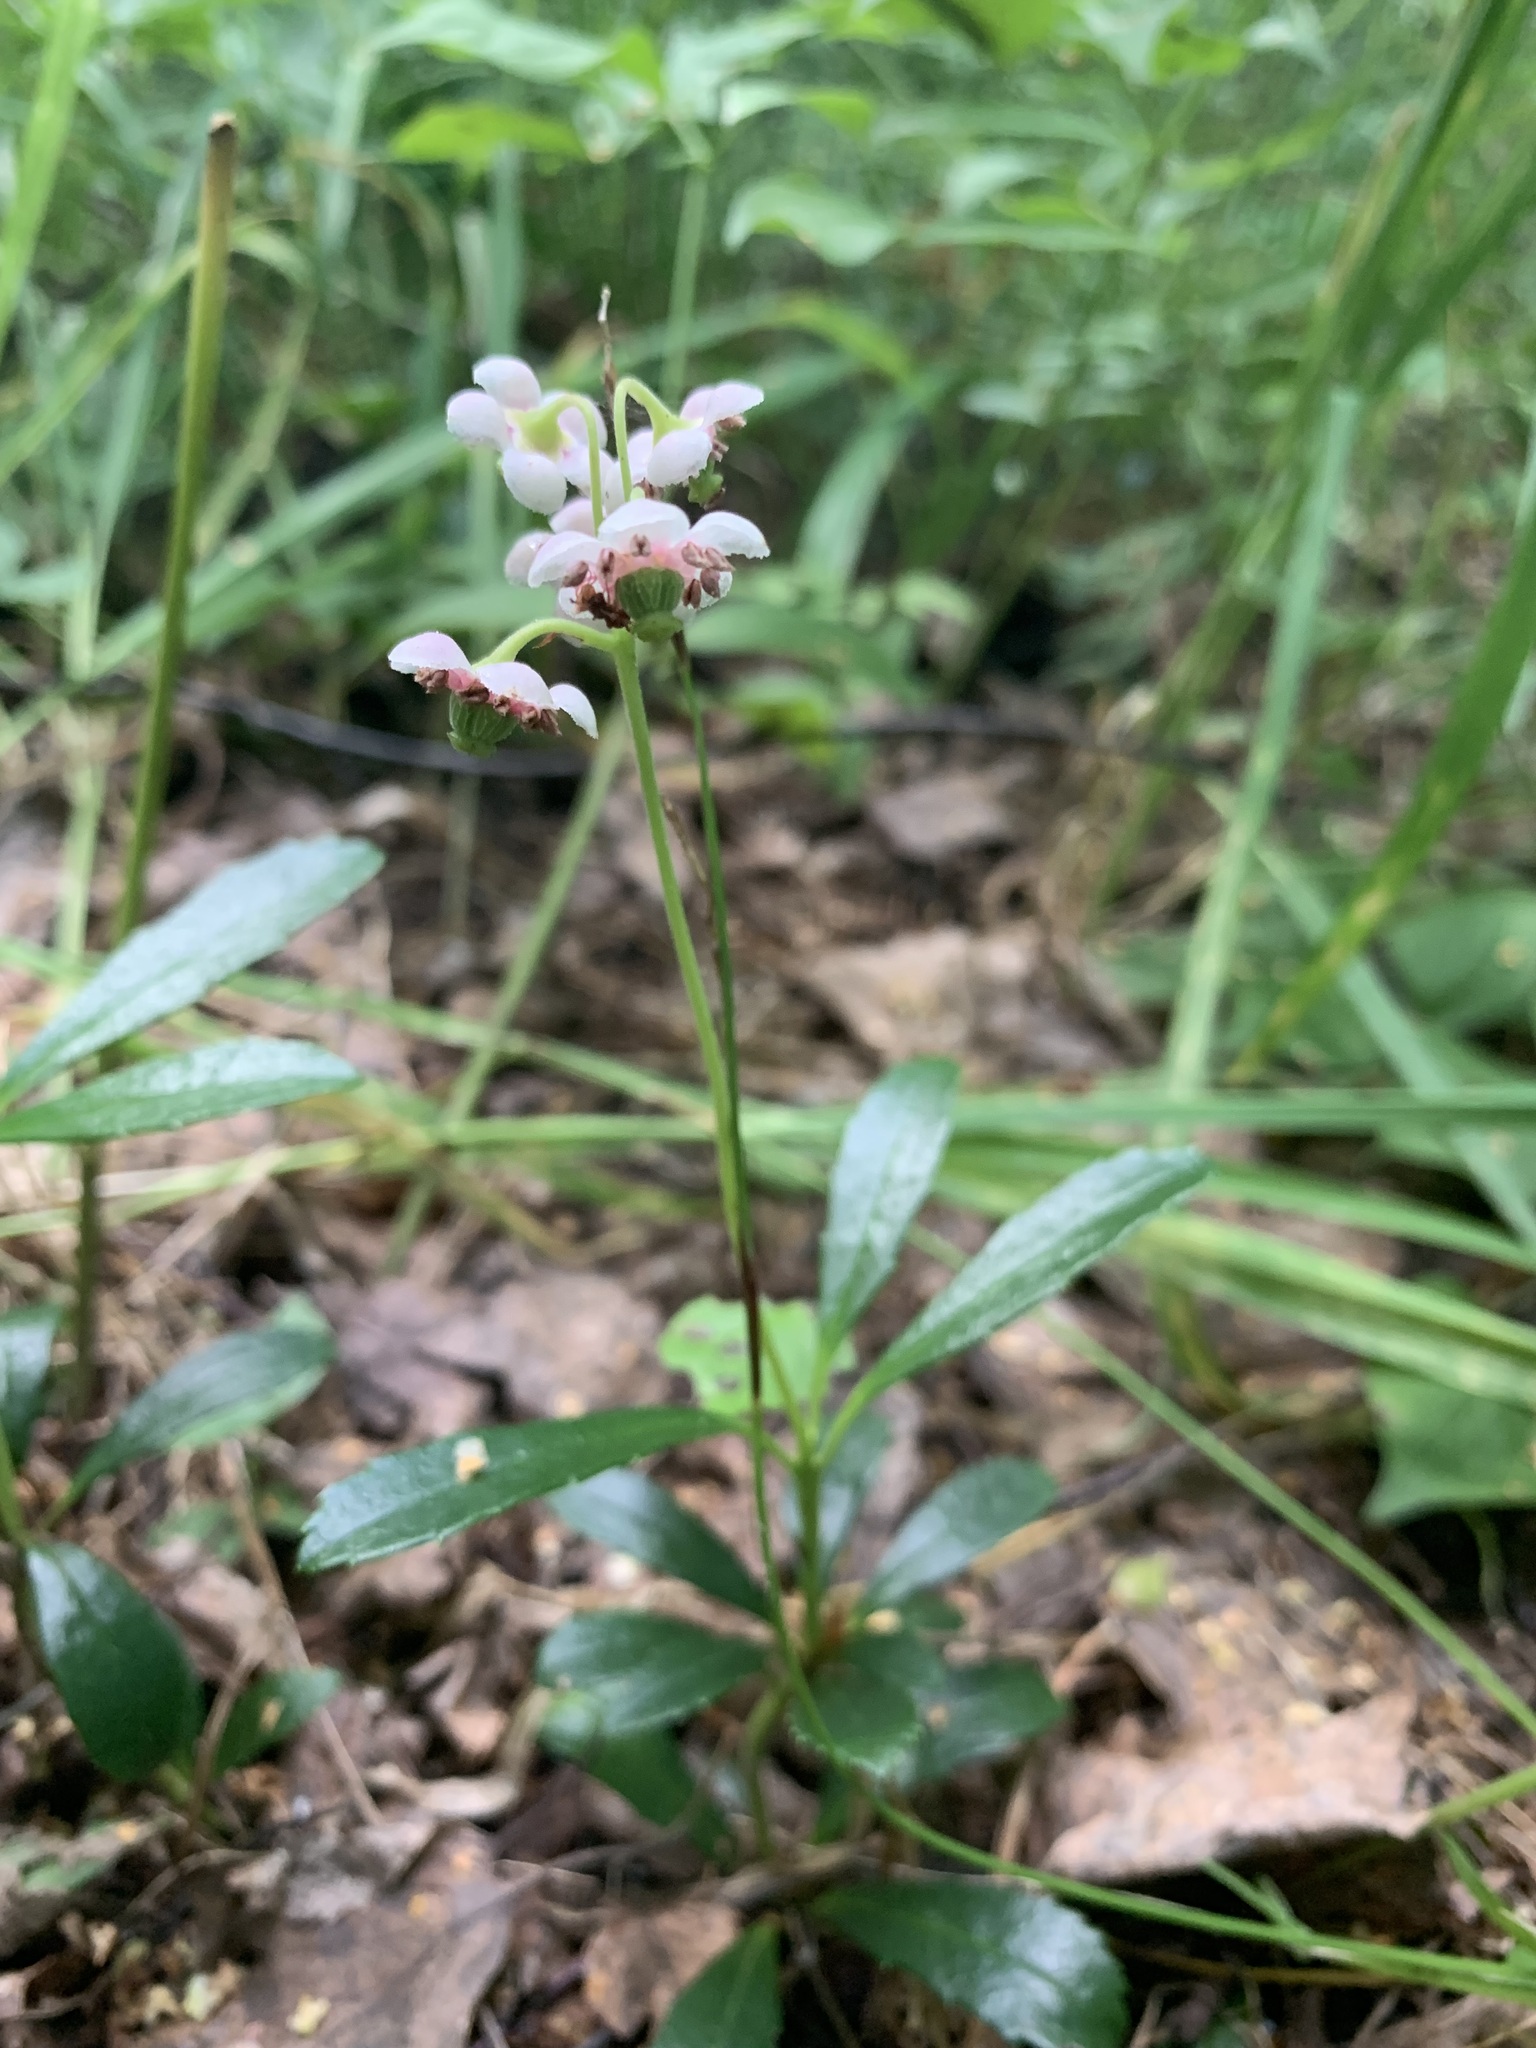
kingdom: Plantae
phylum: Tracheophyta
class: Magnoliopsida
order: Ericales
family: Ericaceae
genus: Chimaphila
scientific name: Chimaphila umbellata
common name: Pipsissewa
